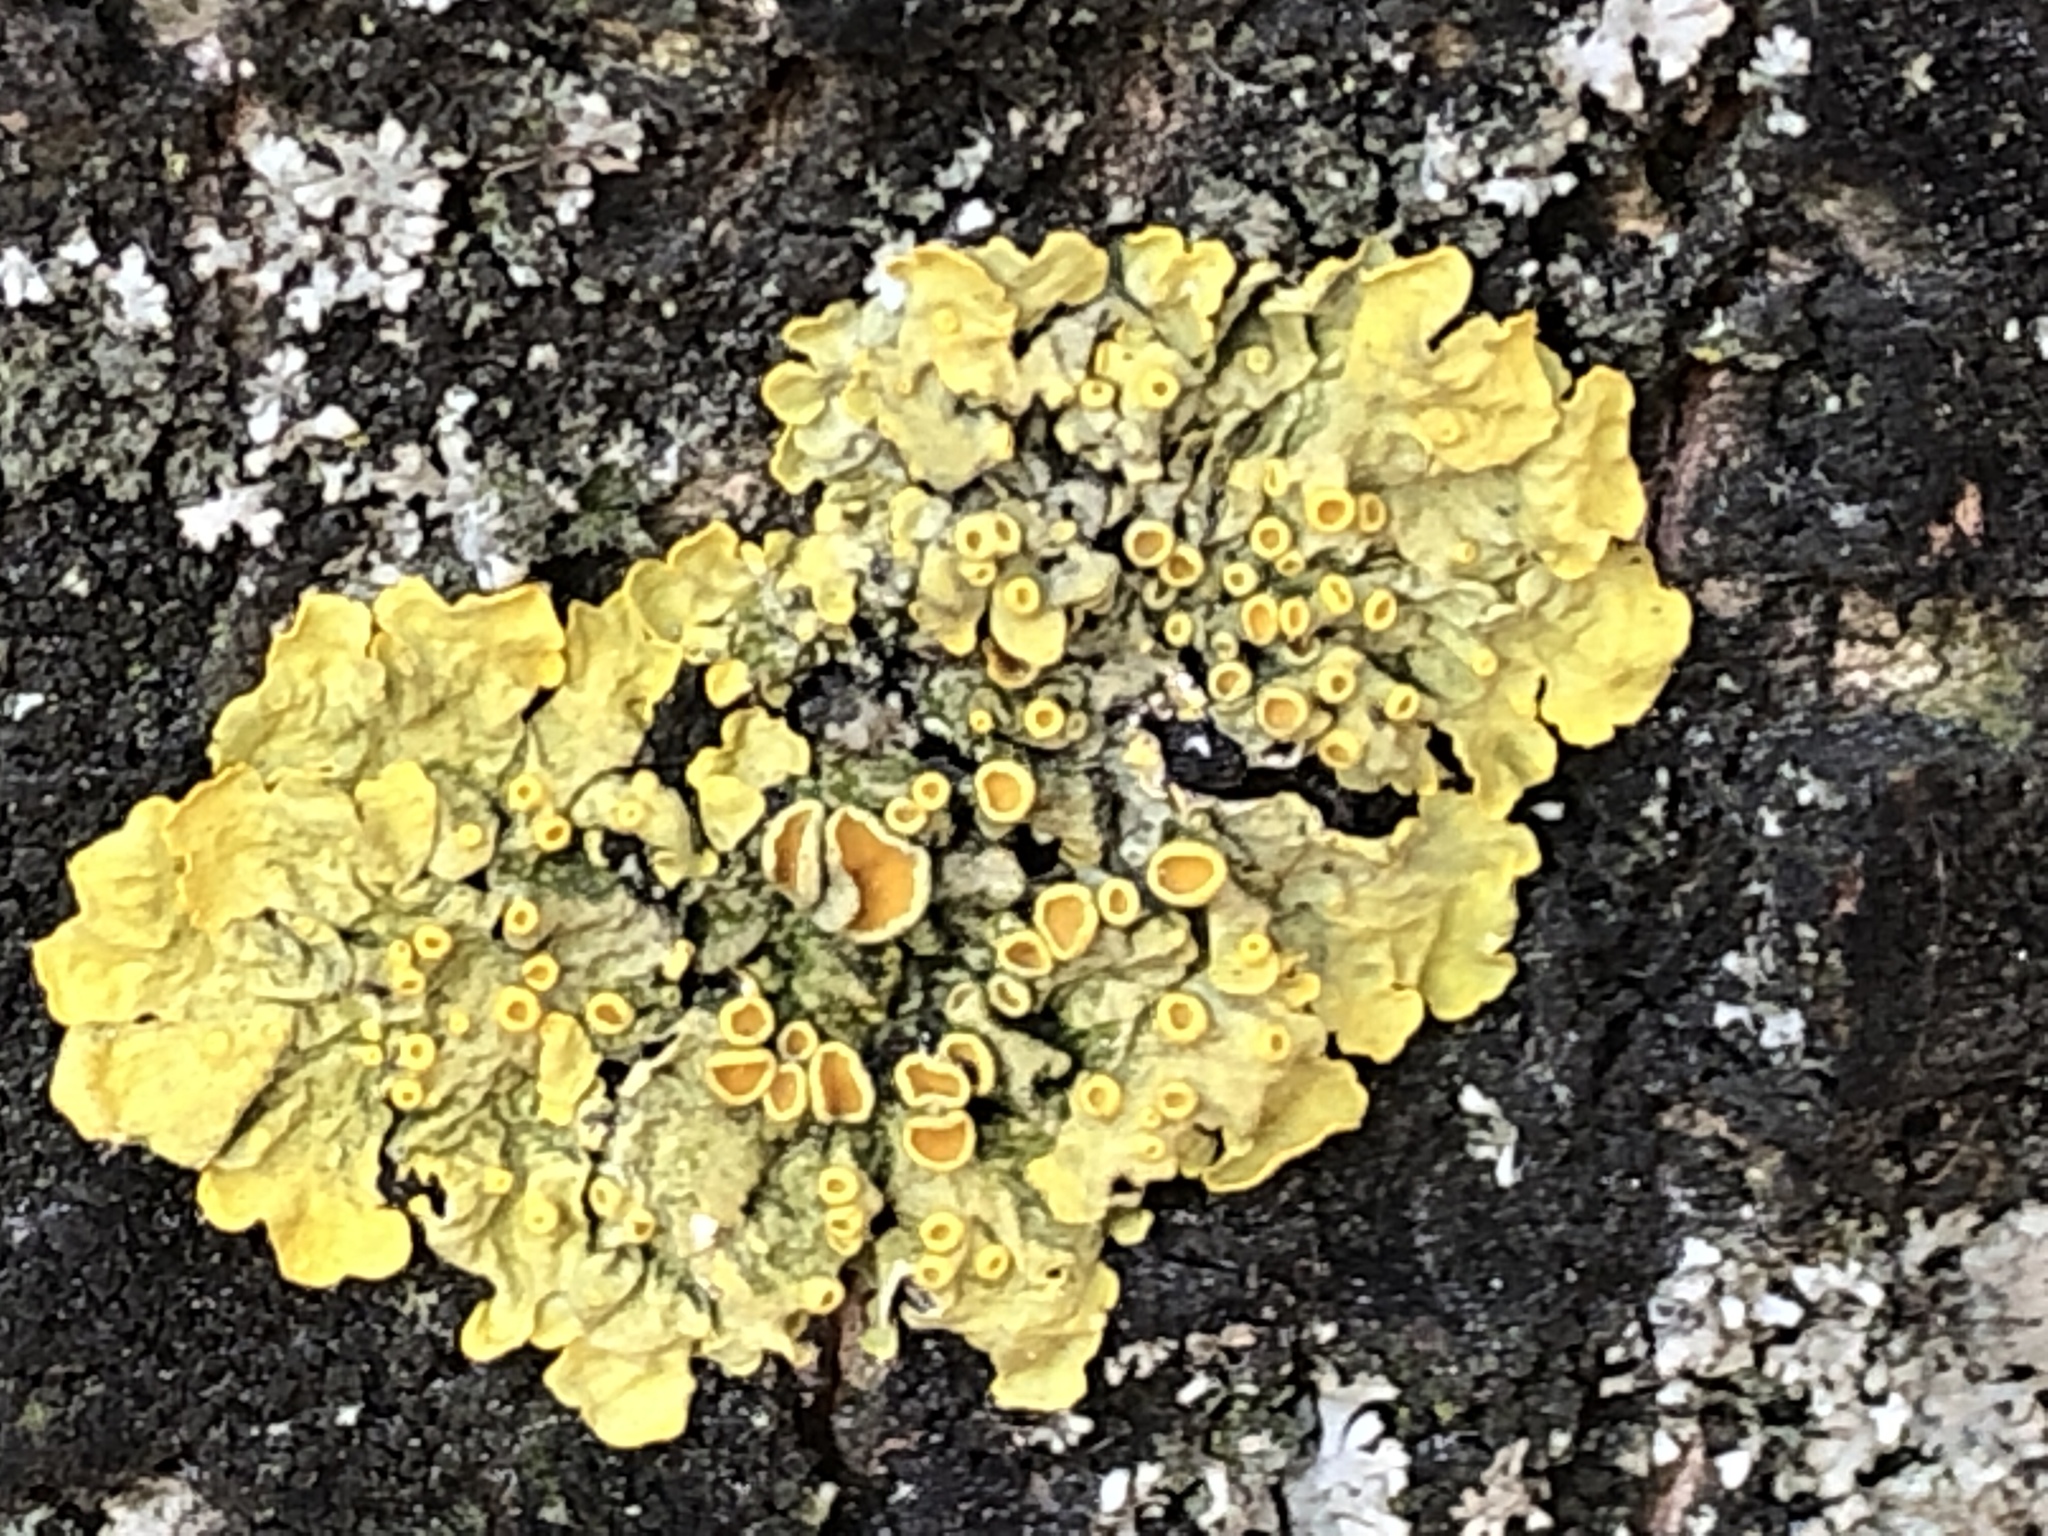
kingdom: Fungi
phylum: Ascomycota
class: Lecanoromycetes
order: Teloschistales
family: Teloschistaceae
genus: Xanthoria
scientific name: Xanthoria parietina
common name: Common orange lichen
